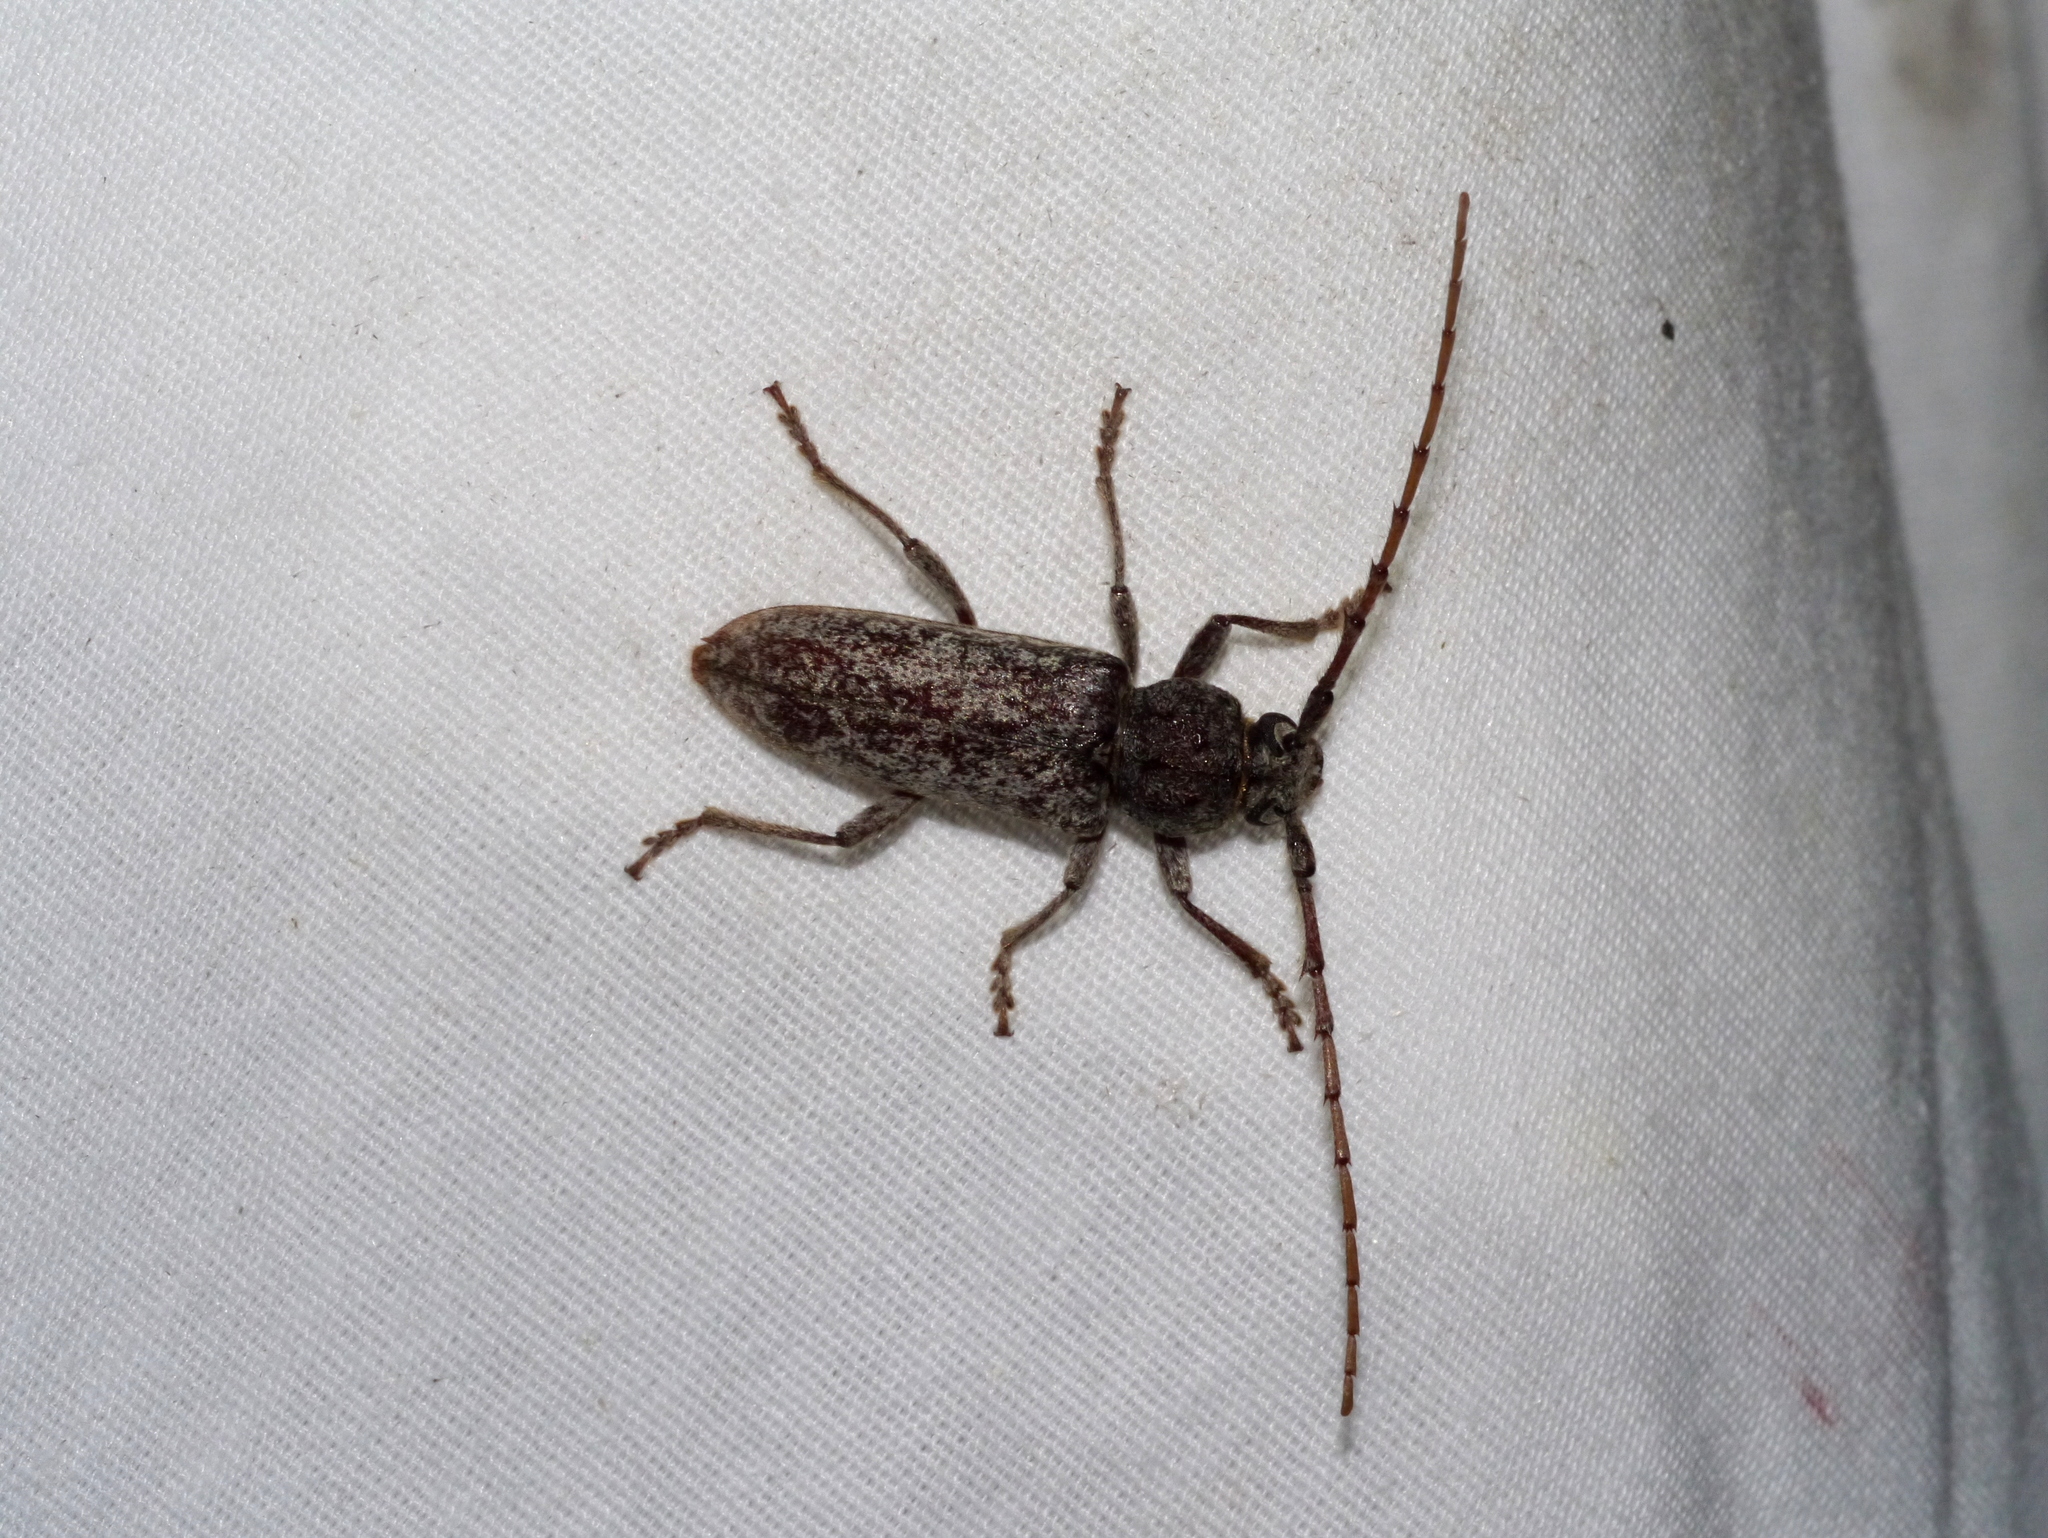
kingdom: Animalia
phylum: Arthropoda
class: Insecta
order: Coleoptera
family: Cerambycidae
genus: Enaphalodes
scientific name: Enaphalodes atomarius
